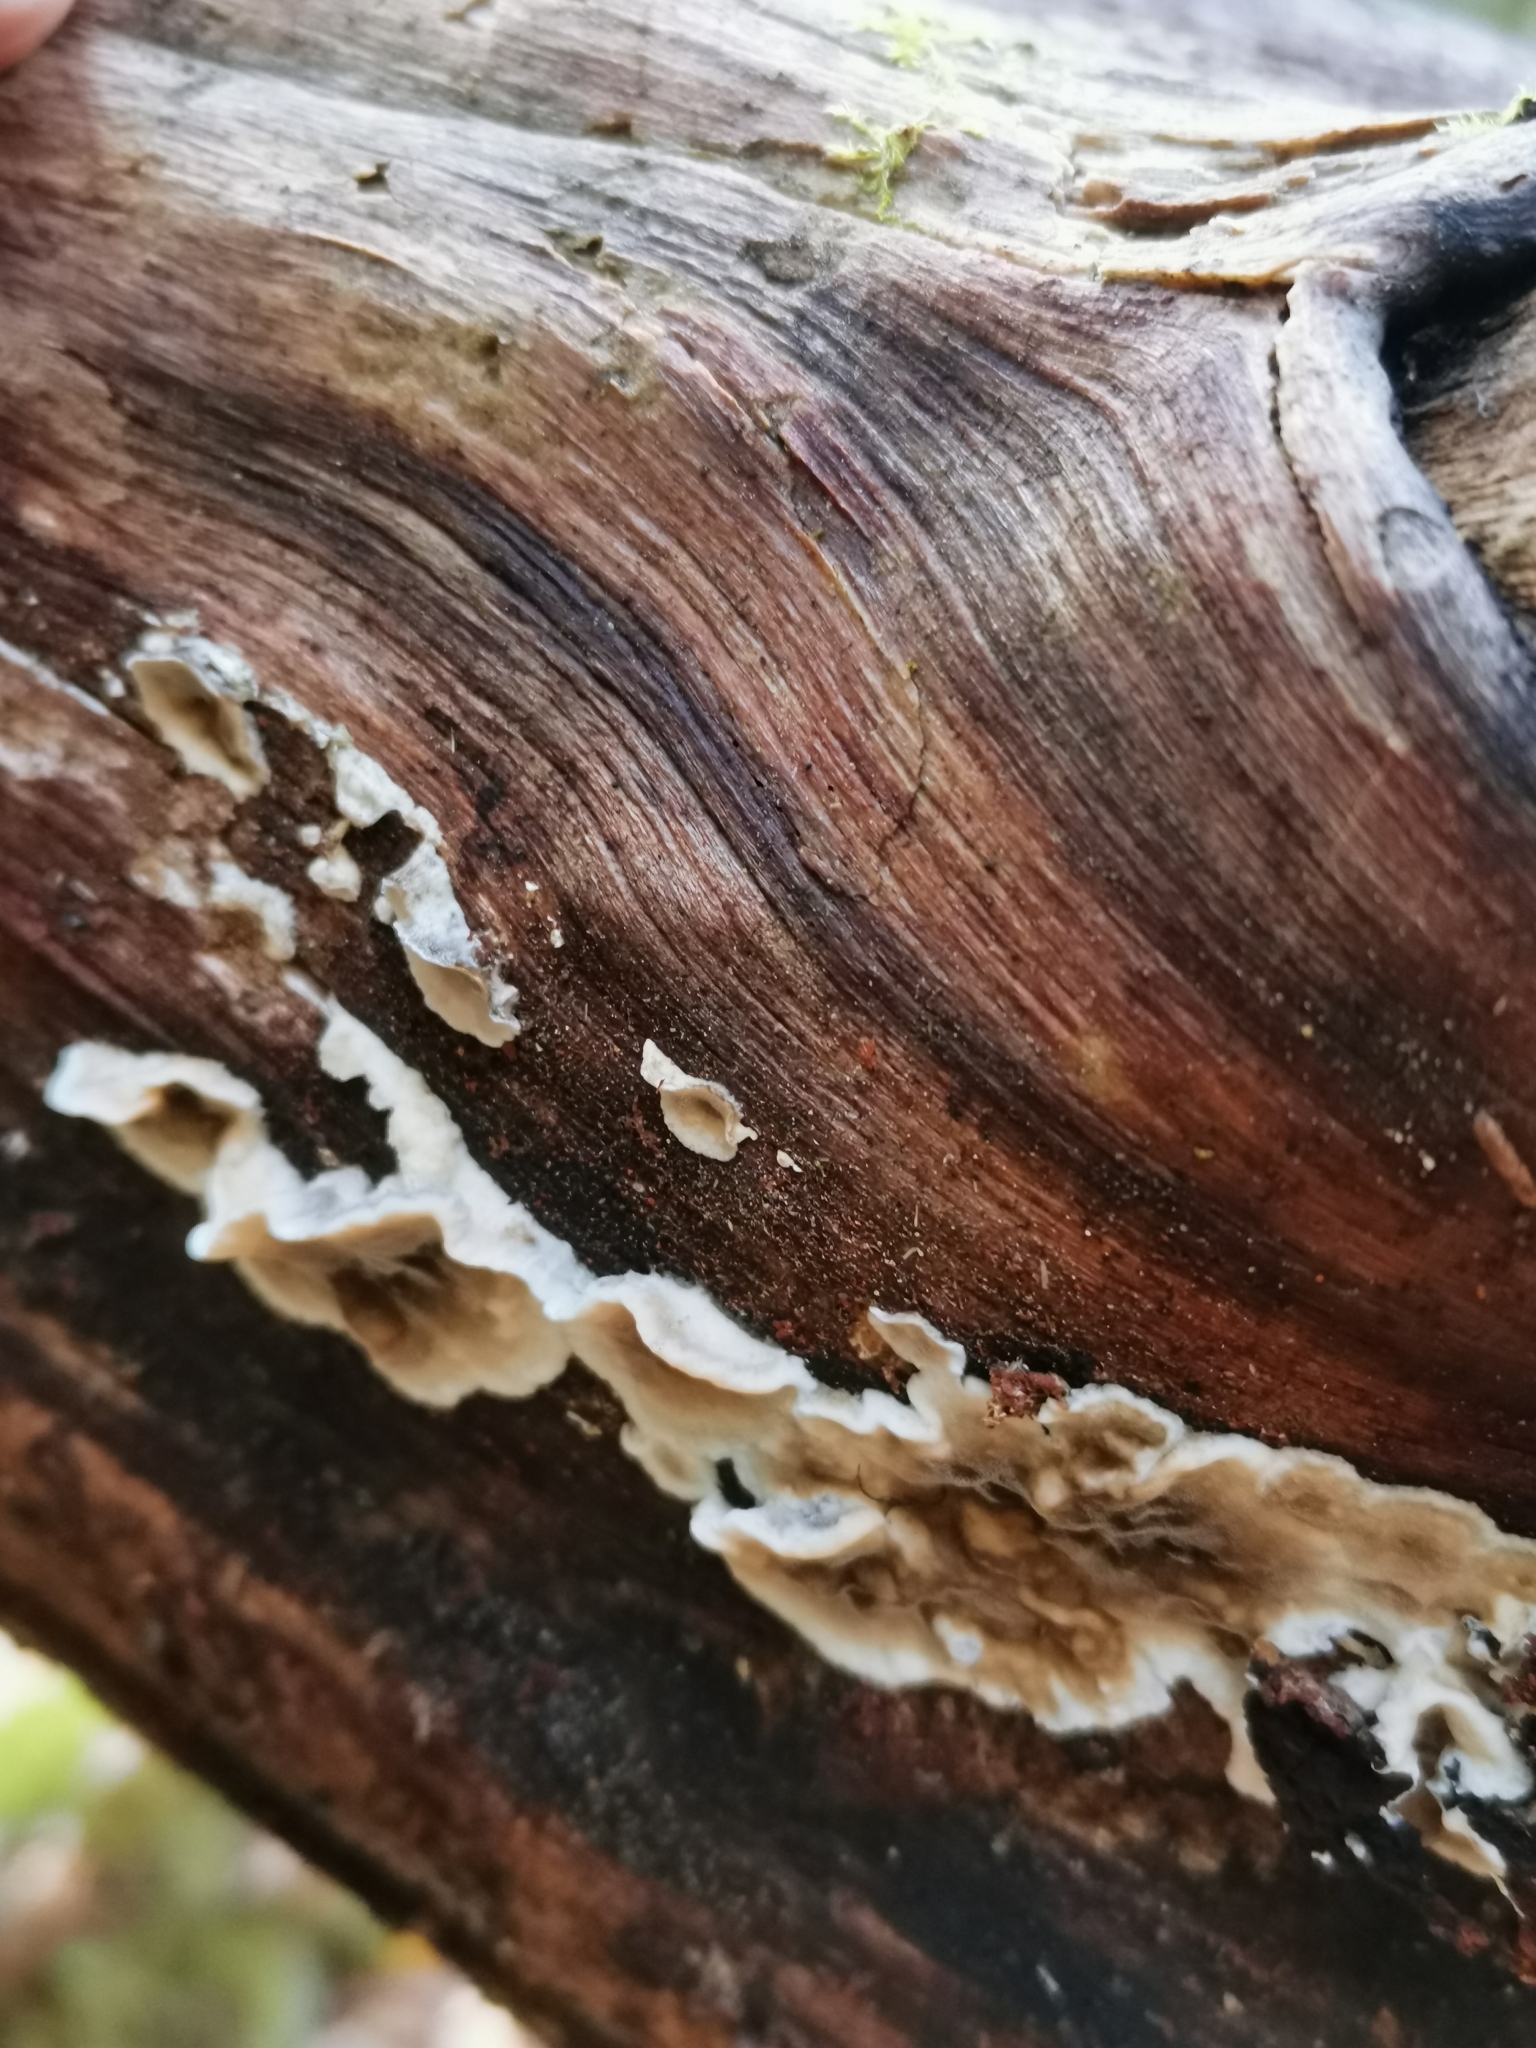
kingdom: Fungi
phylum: Basidiomycota
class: Agaricomycetes
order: Polyporales
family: Phanerochaetaceae
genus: Bjerkandera
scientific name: Bjerkandera adusta
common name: Smoky bracket
